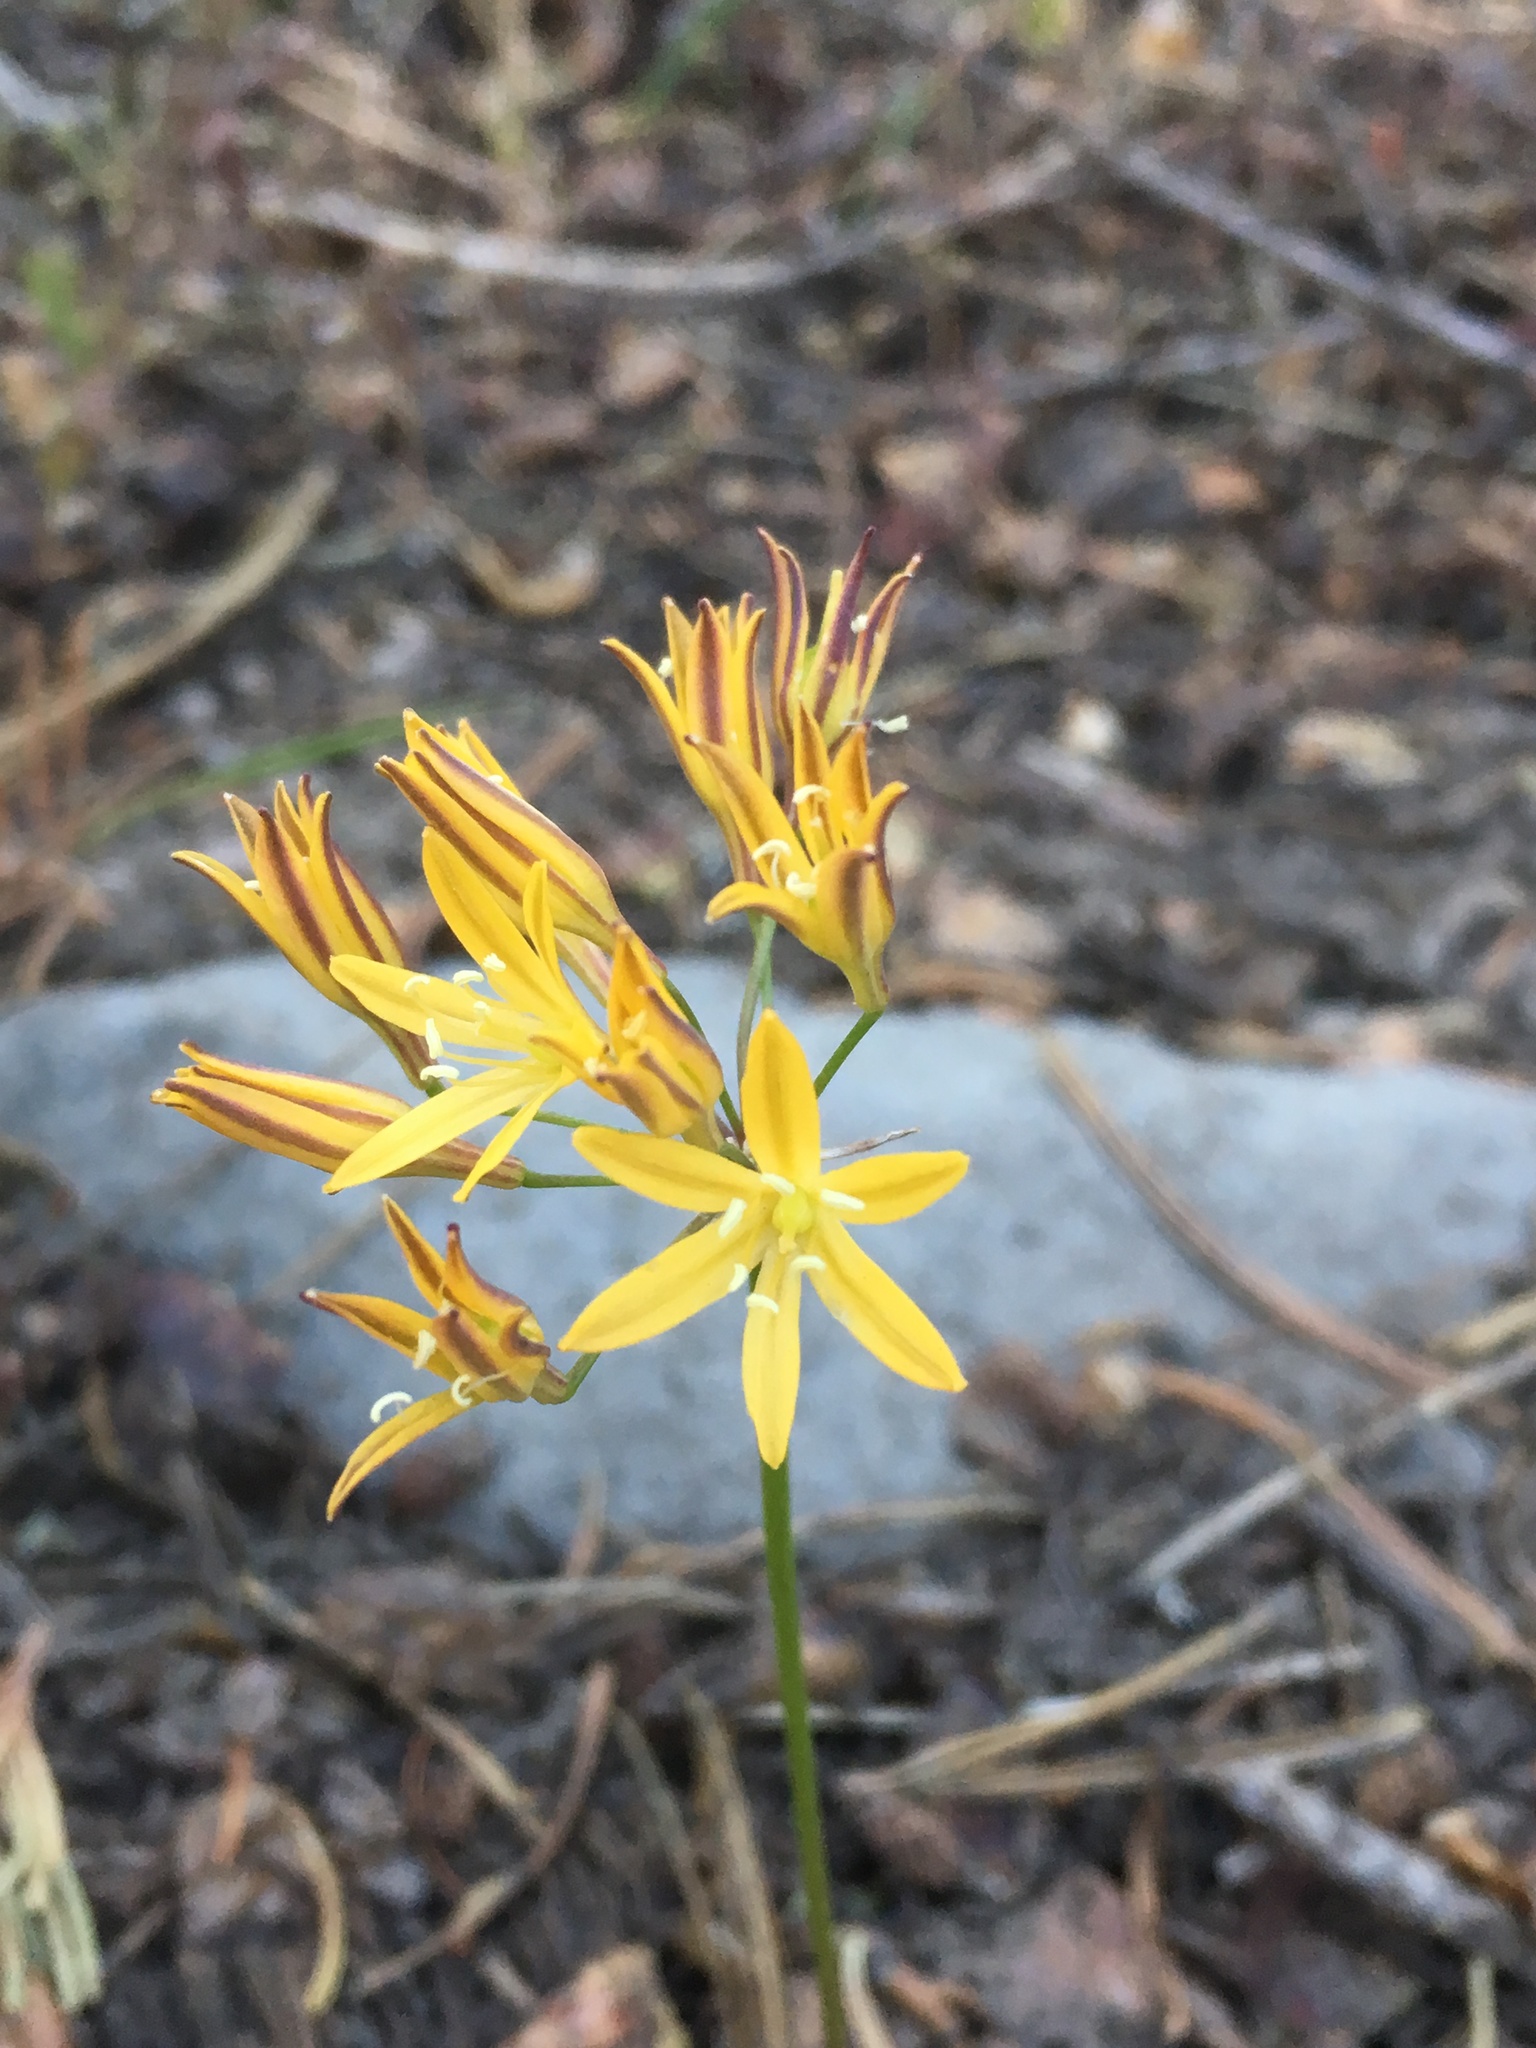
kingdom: Plantae
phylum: Tracheophyta
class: Liliopsida
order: Asparagales
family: Asparagaceae
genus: Triteleia
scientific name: Triteleia montana
